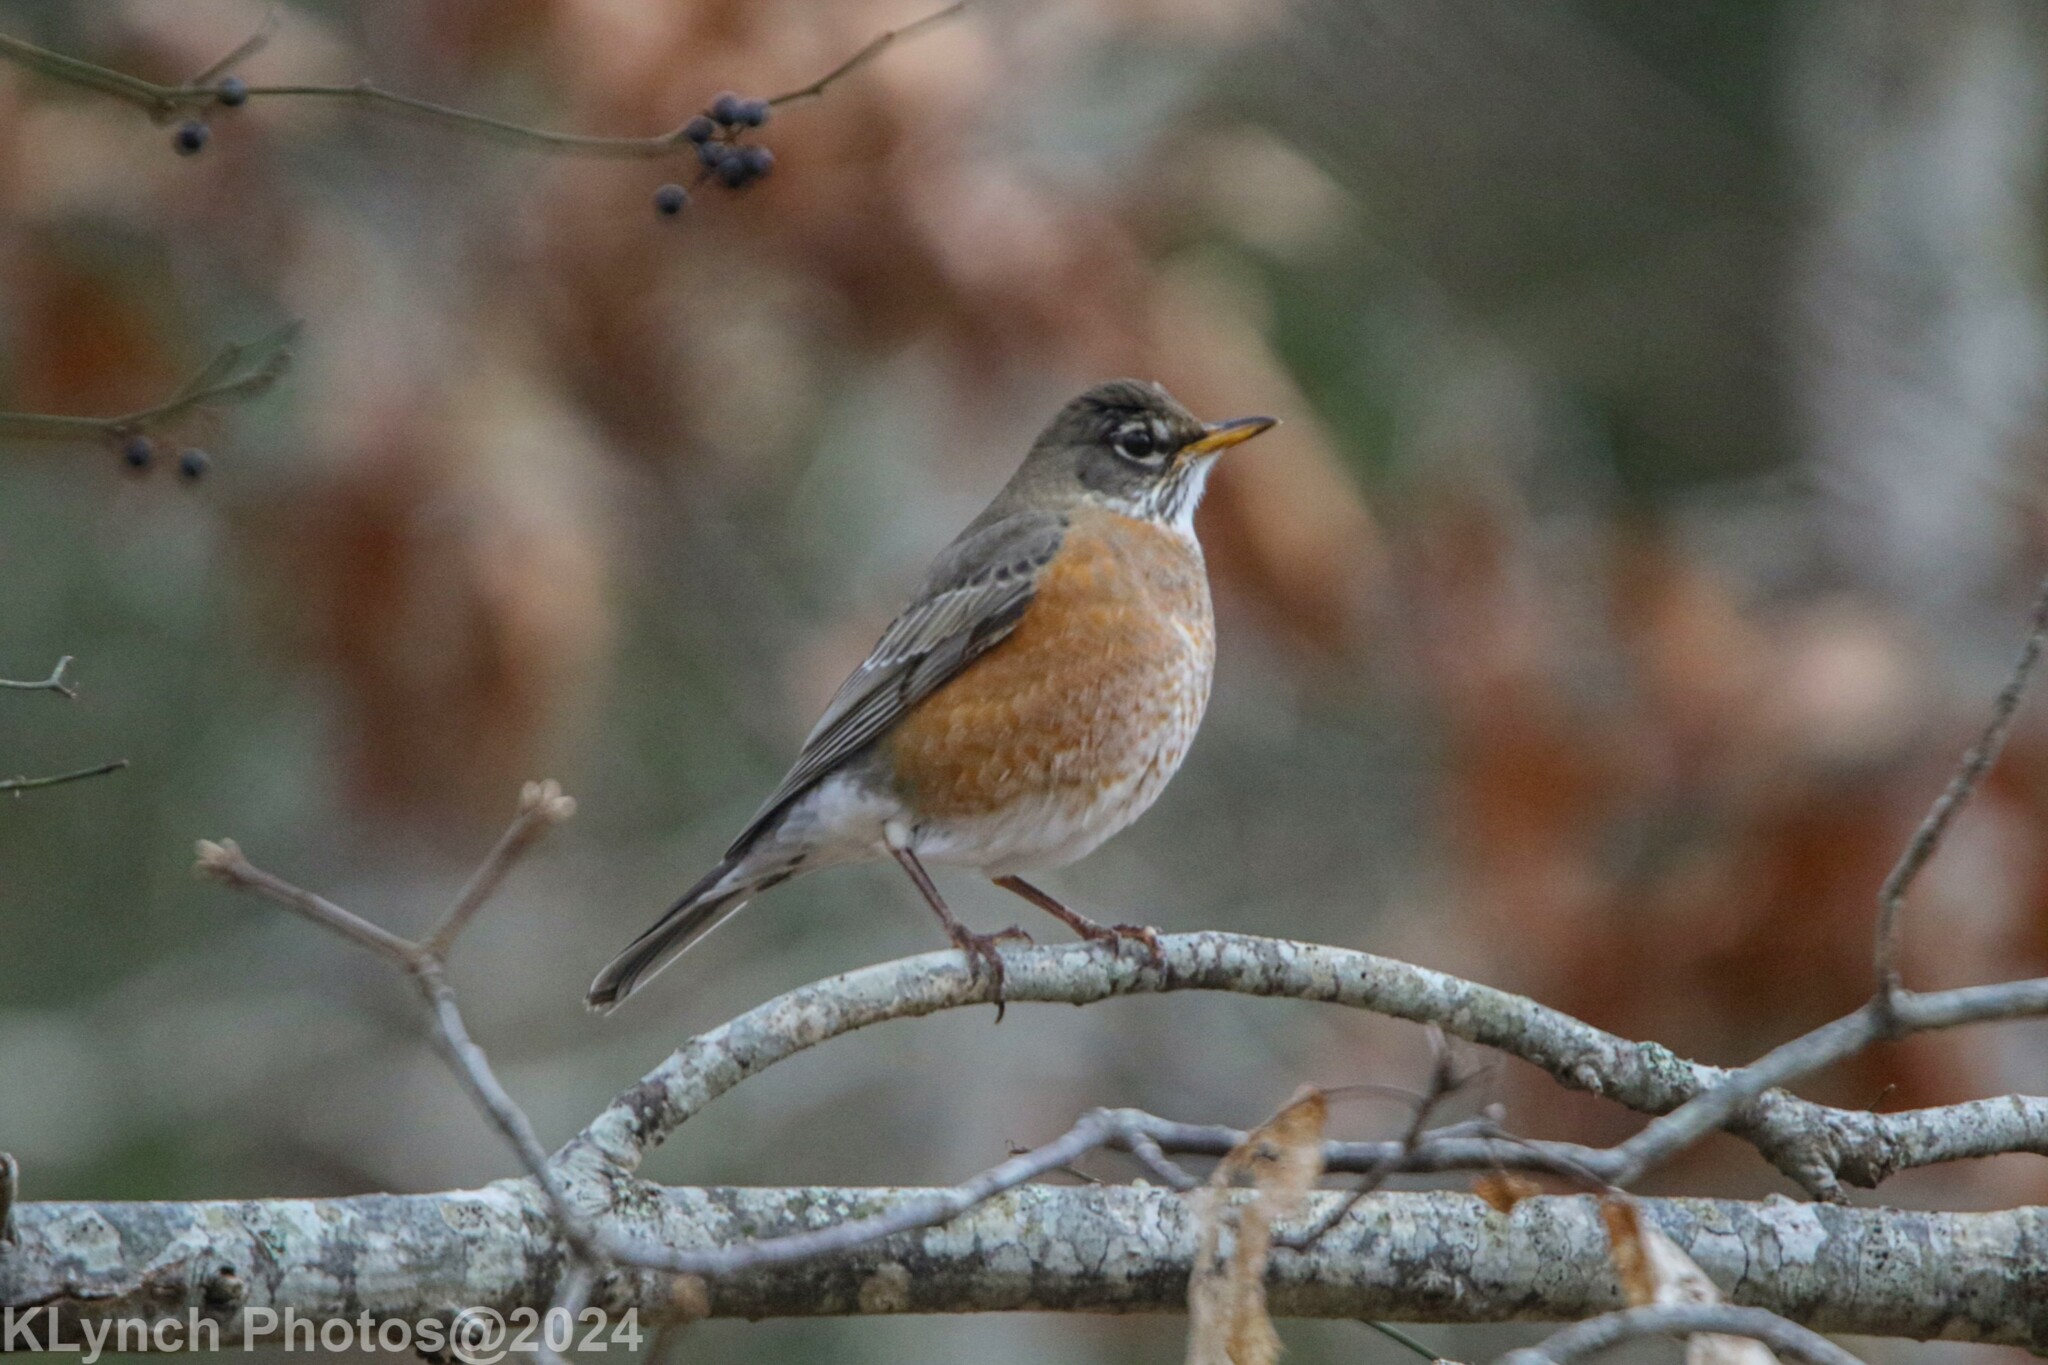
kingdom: Animalia
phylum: Chordata
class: Aves
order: Passeriformes
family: Turdidae
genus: Turdus
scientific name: Turdus migratorius
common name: American robin
